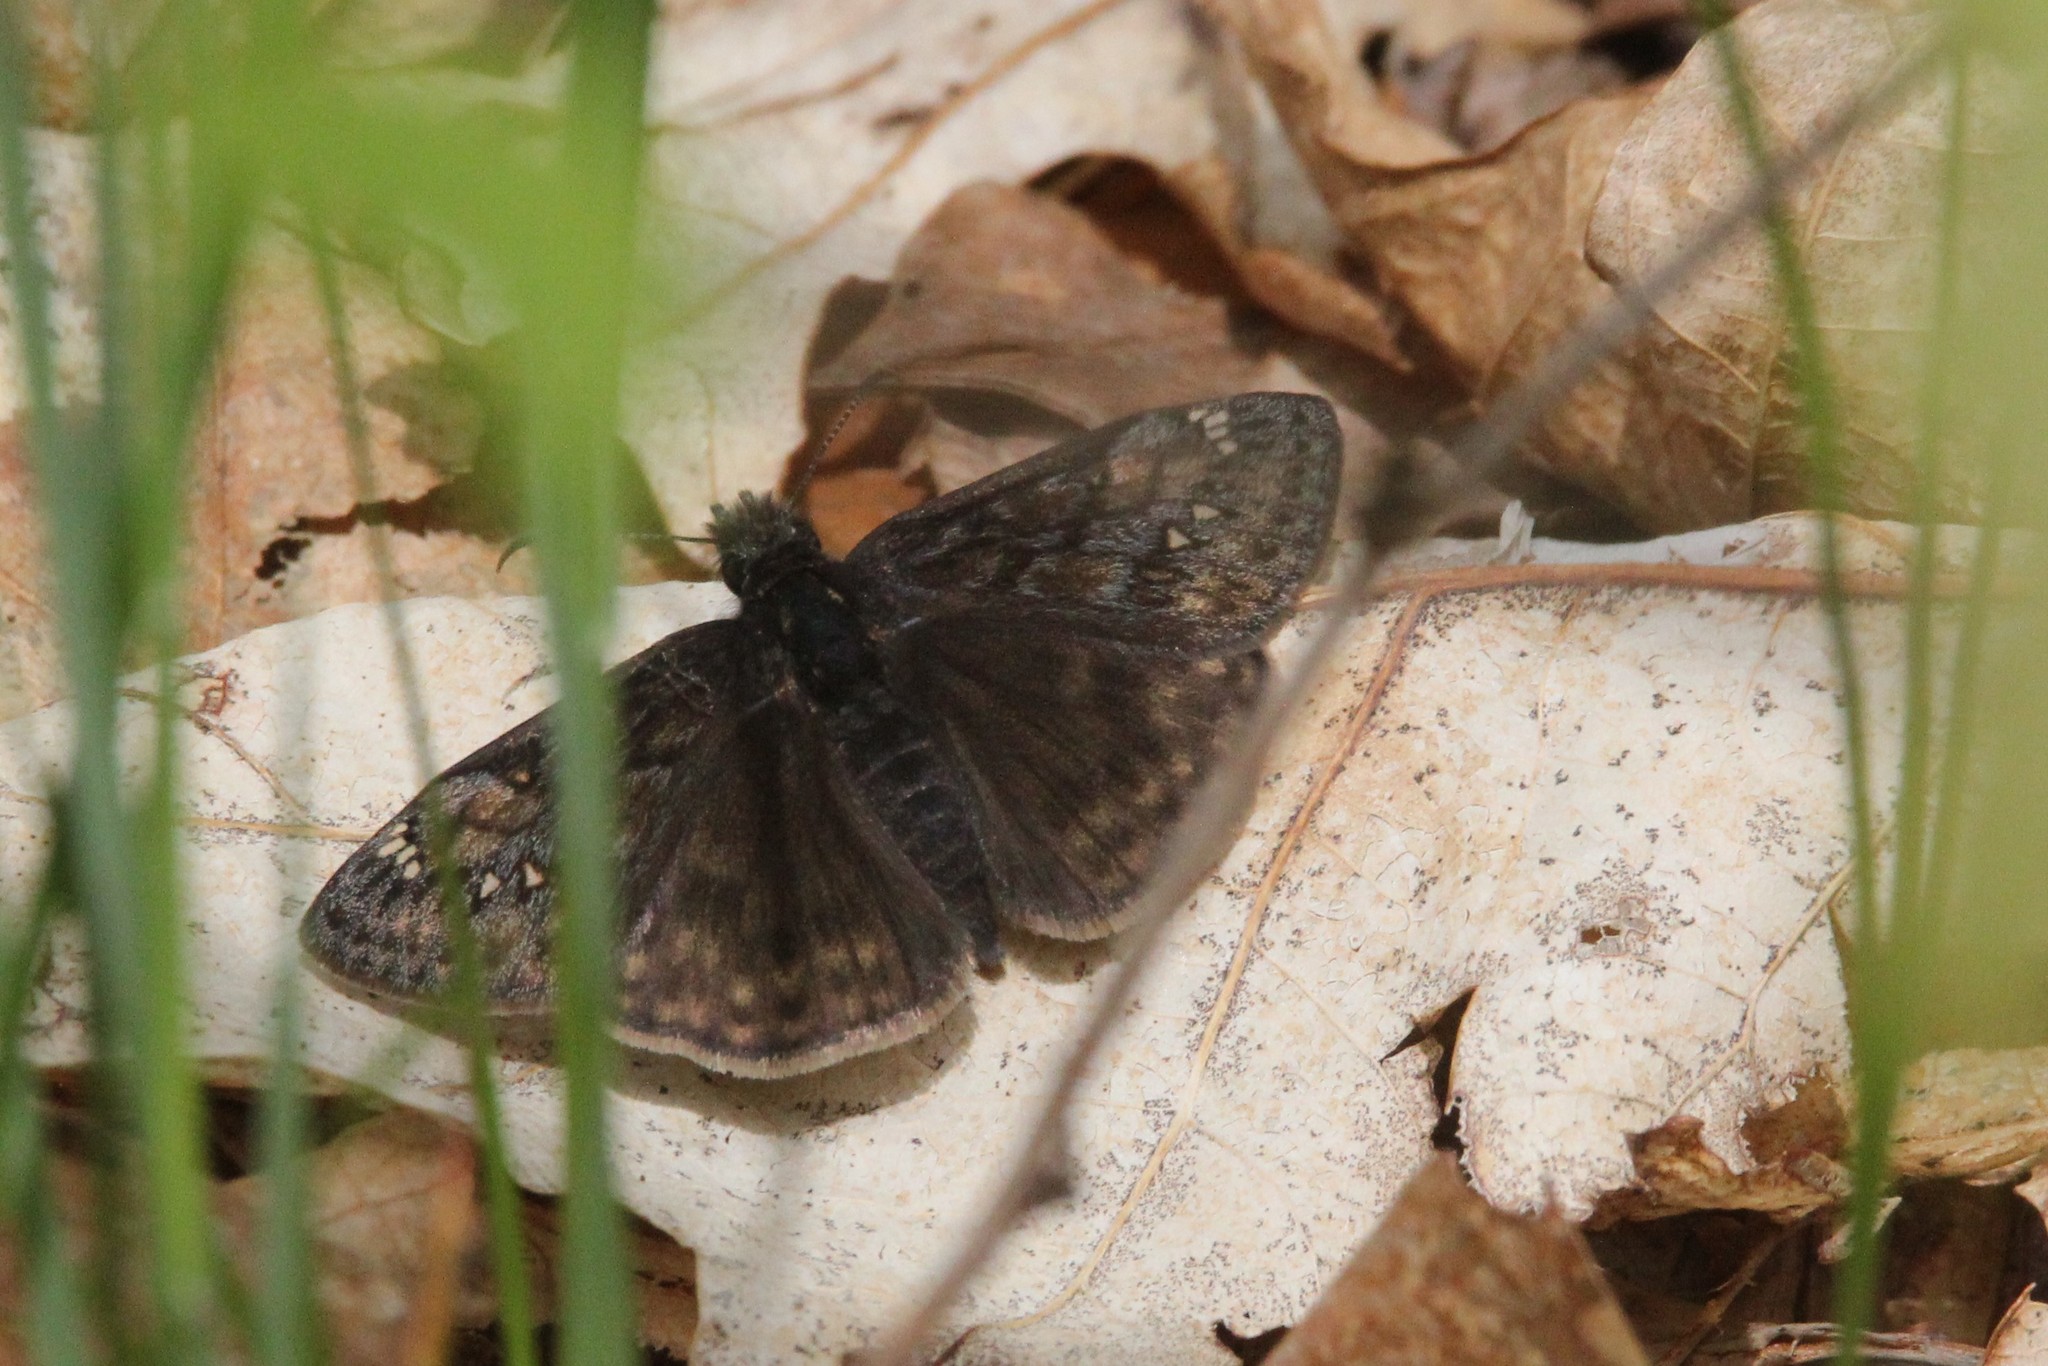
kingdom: Animalia
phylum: Arthropoda
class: Insecta
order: Lepidoptera
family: Hesperiidae
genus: Erynnis
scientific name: Erynnis juvenalis
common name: Juvenal's duskywing
